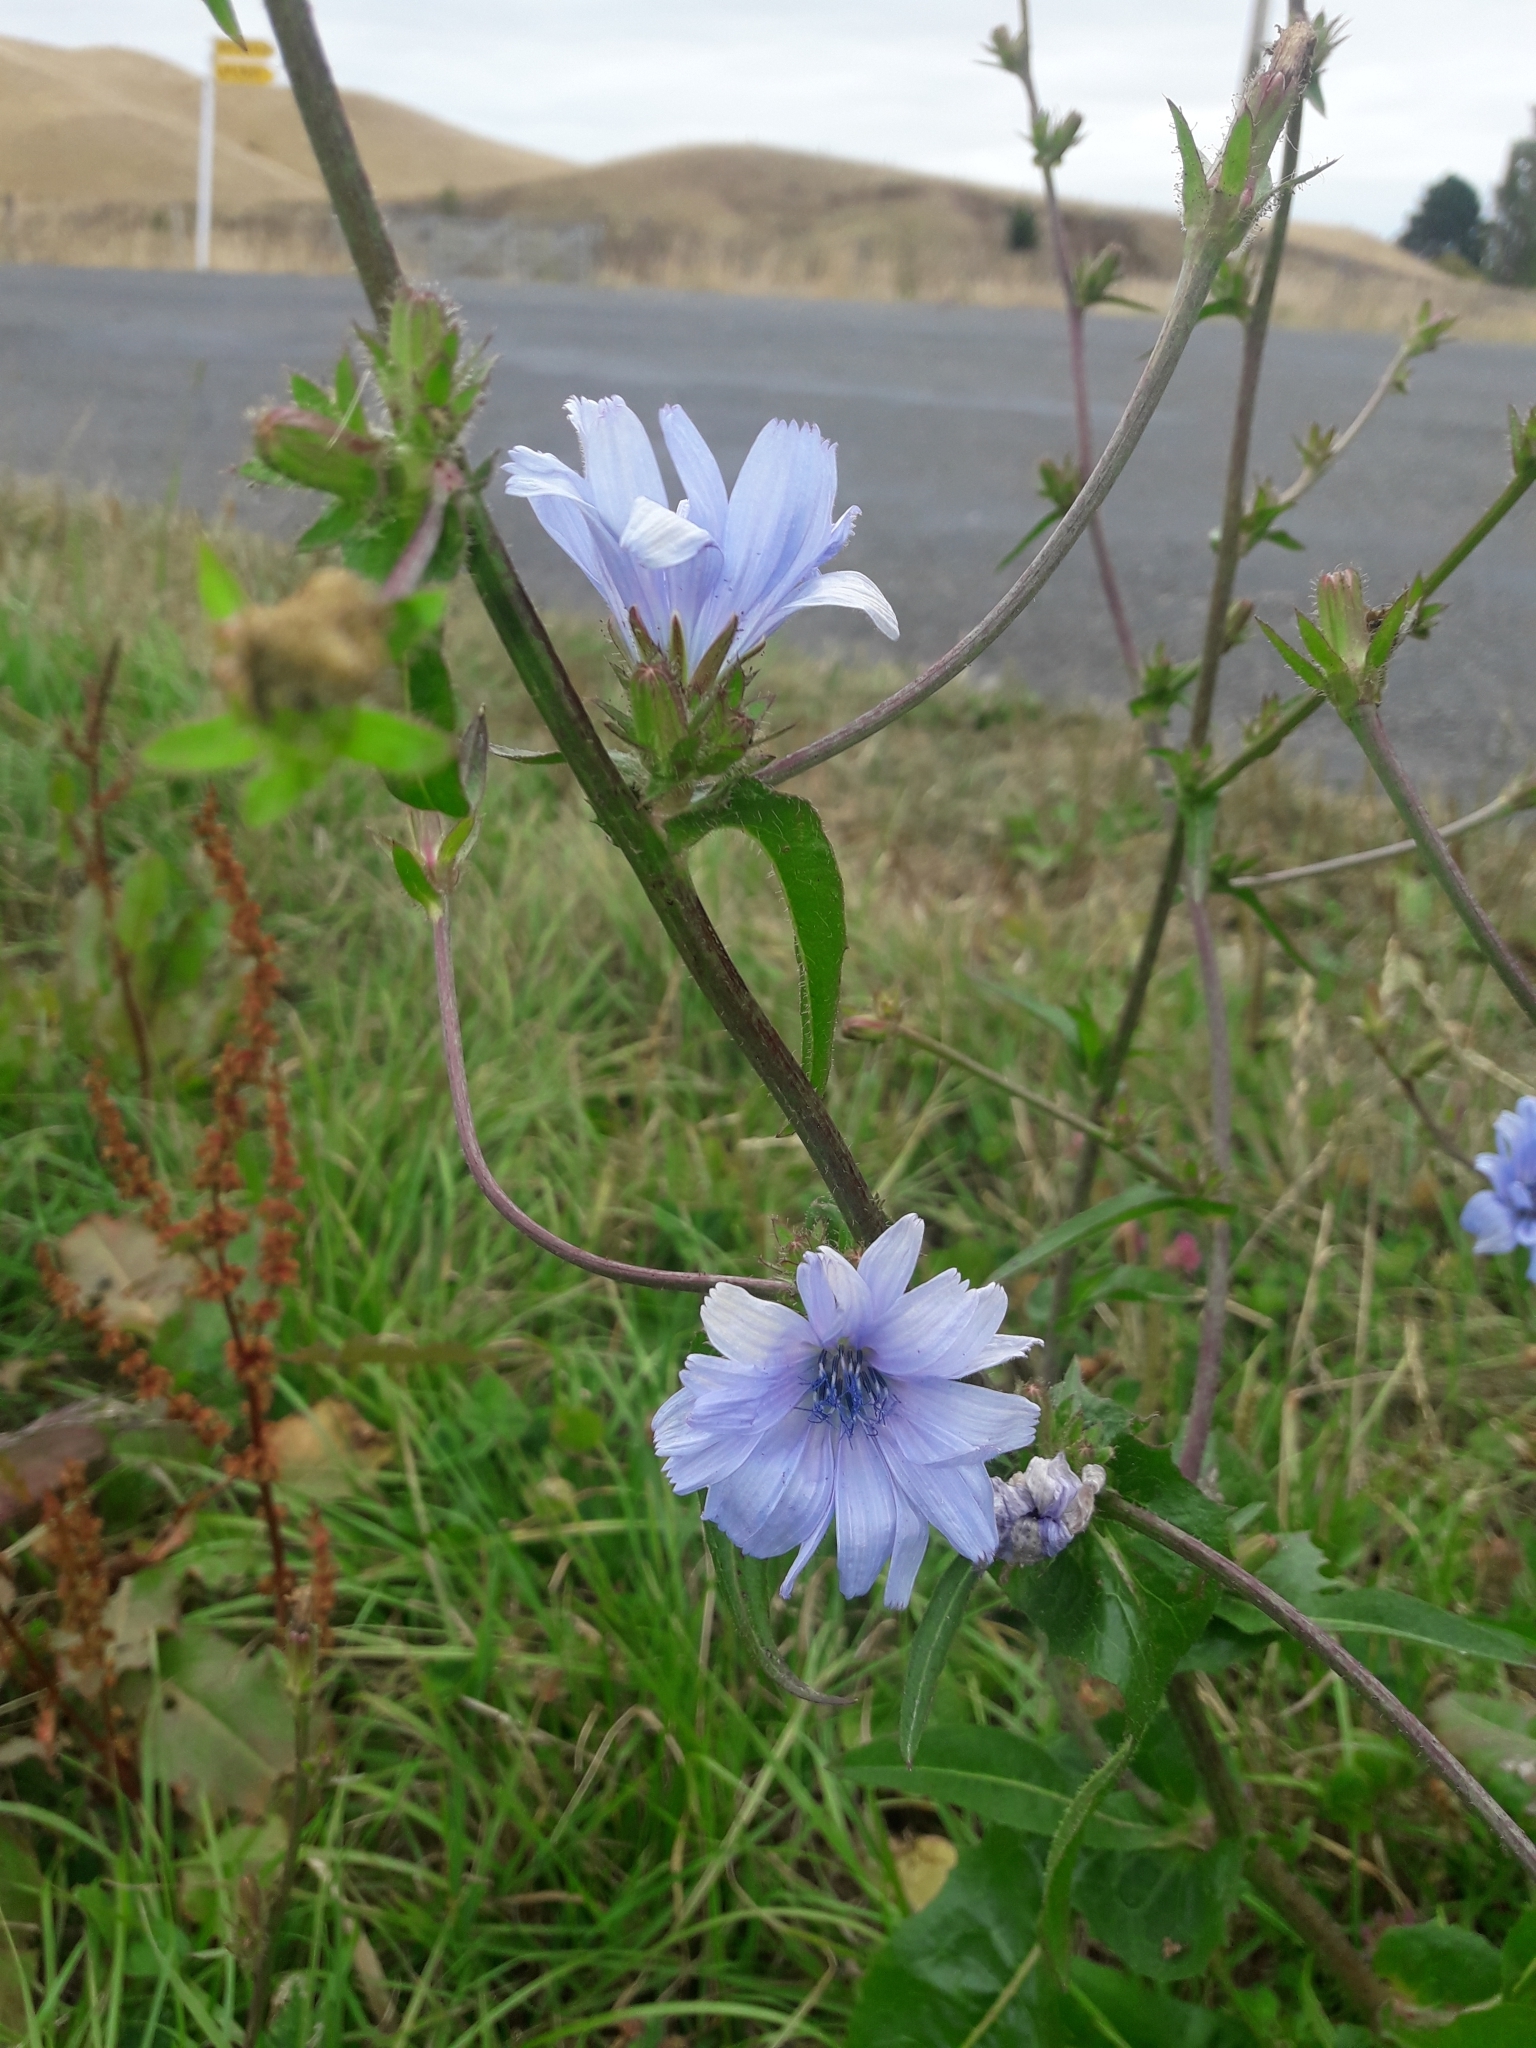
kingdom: Plantae
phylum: Tracheophyta
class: Magnoliopsida
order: Asterales
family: Asteraceae
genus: Cichorium
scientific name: Cichorium intybus
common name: Chicory
